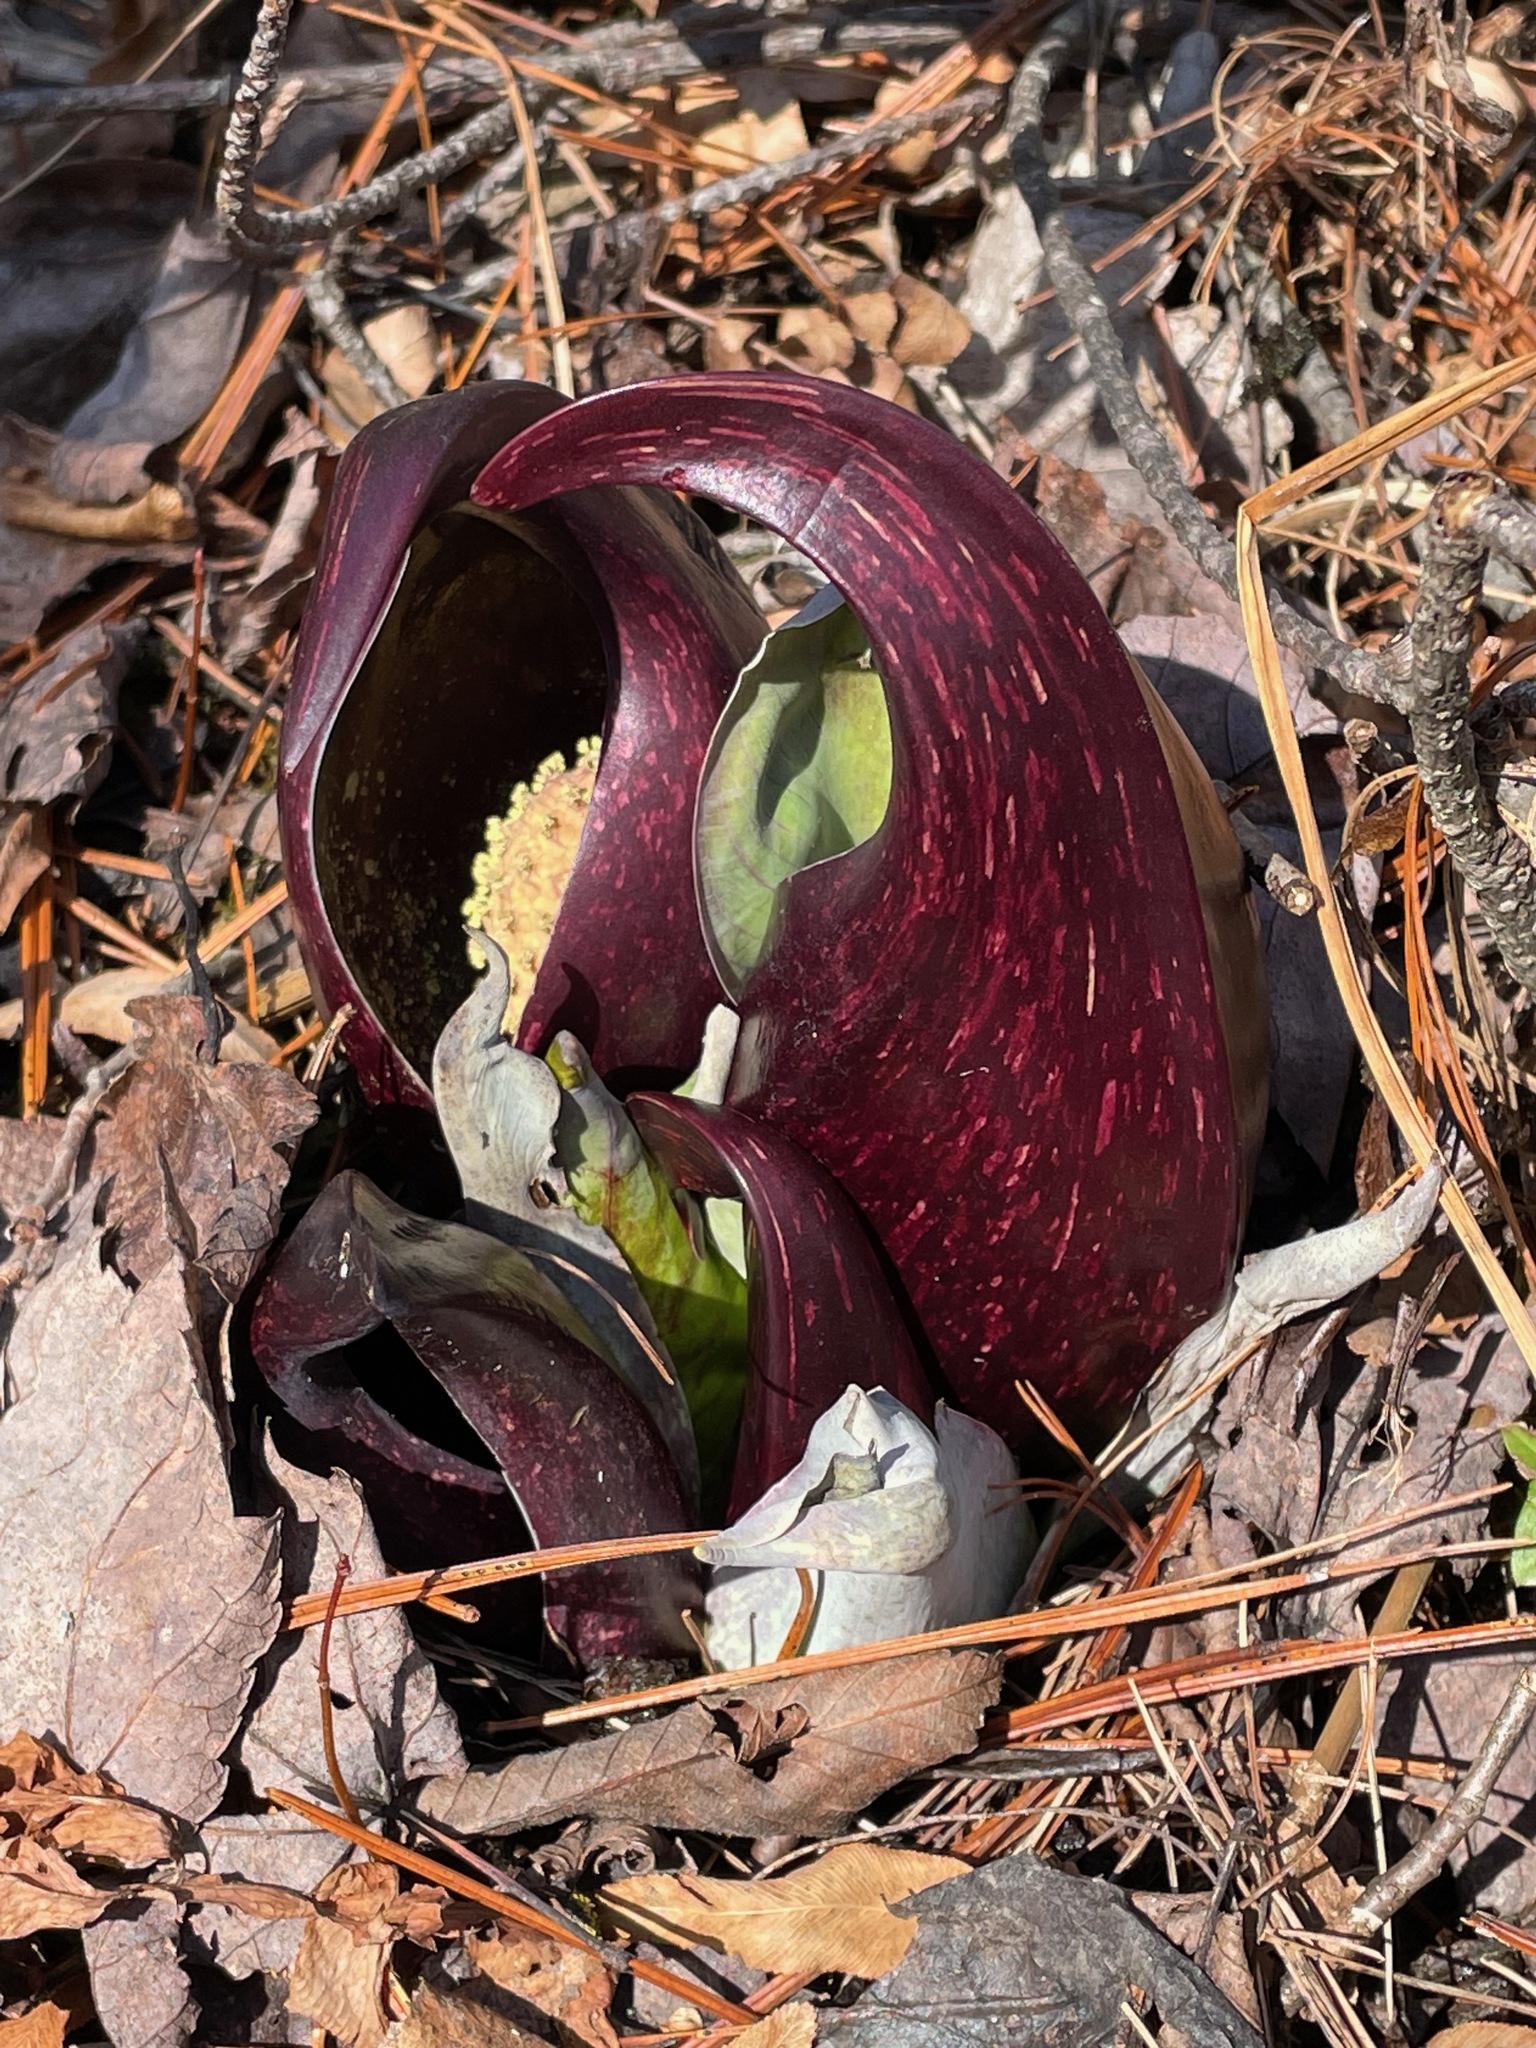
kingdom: Plantae
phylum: Tracheophyta
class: Liliopsida
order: Alismatales
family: Araceae
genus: Symplocarpus
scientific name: Symplocarpus foetidus
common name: Eastern skunk cabbage
